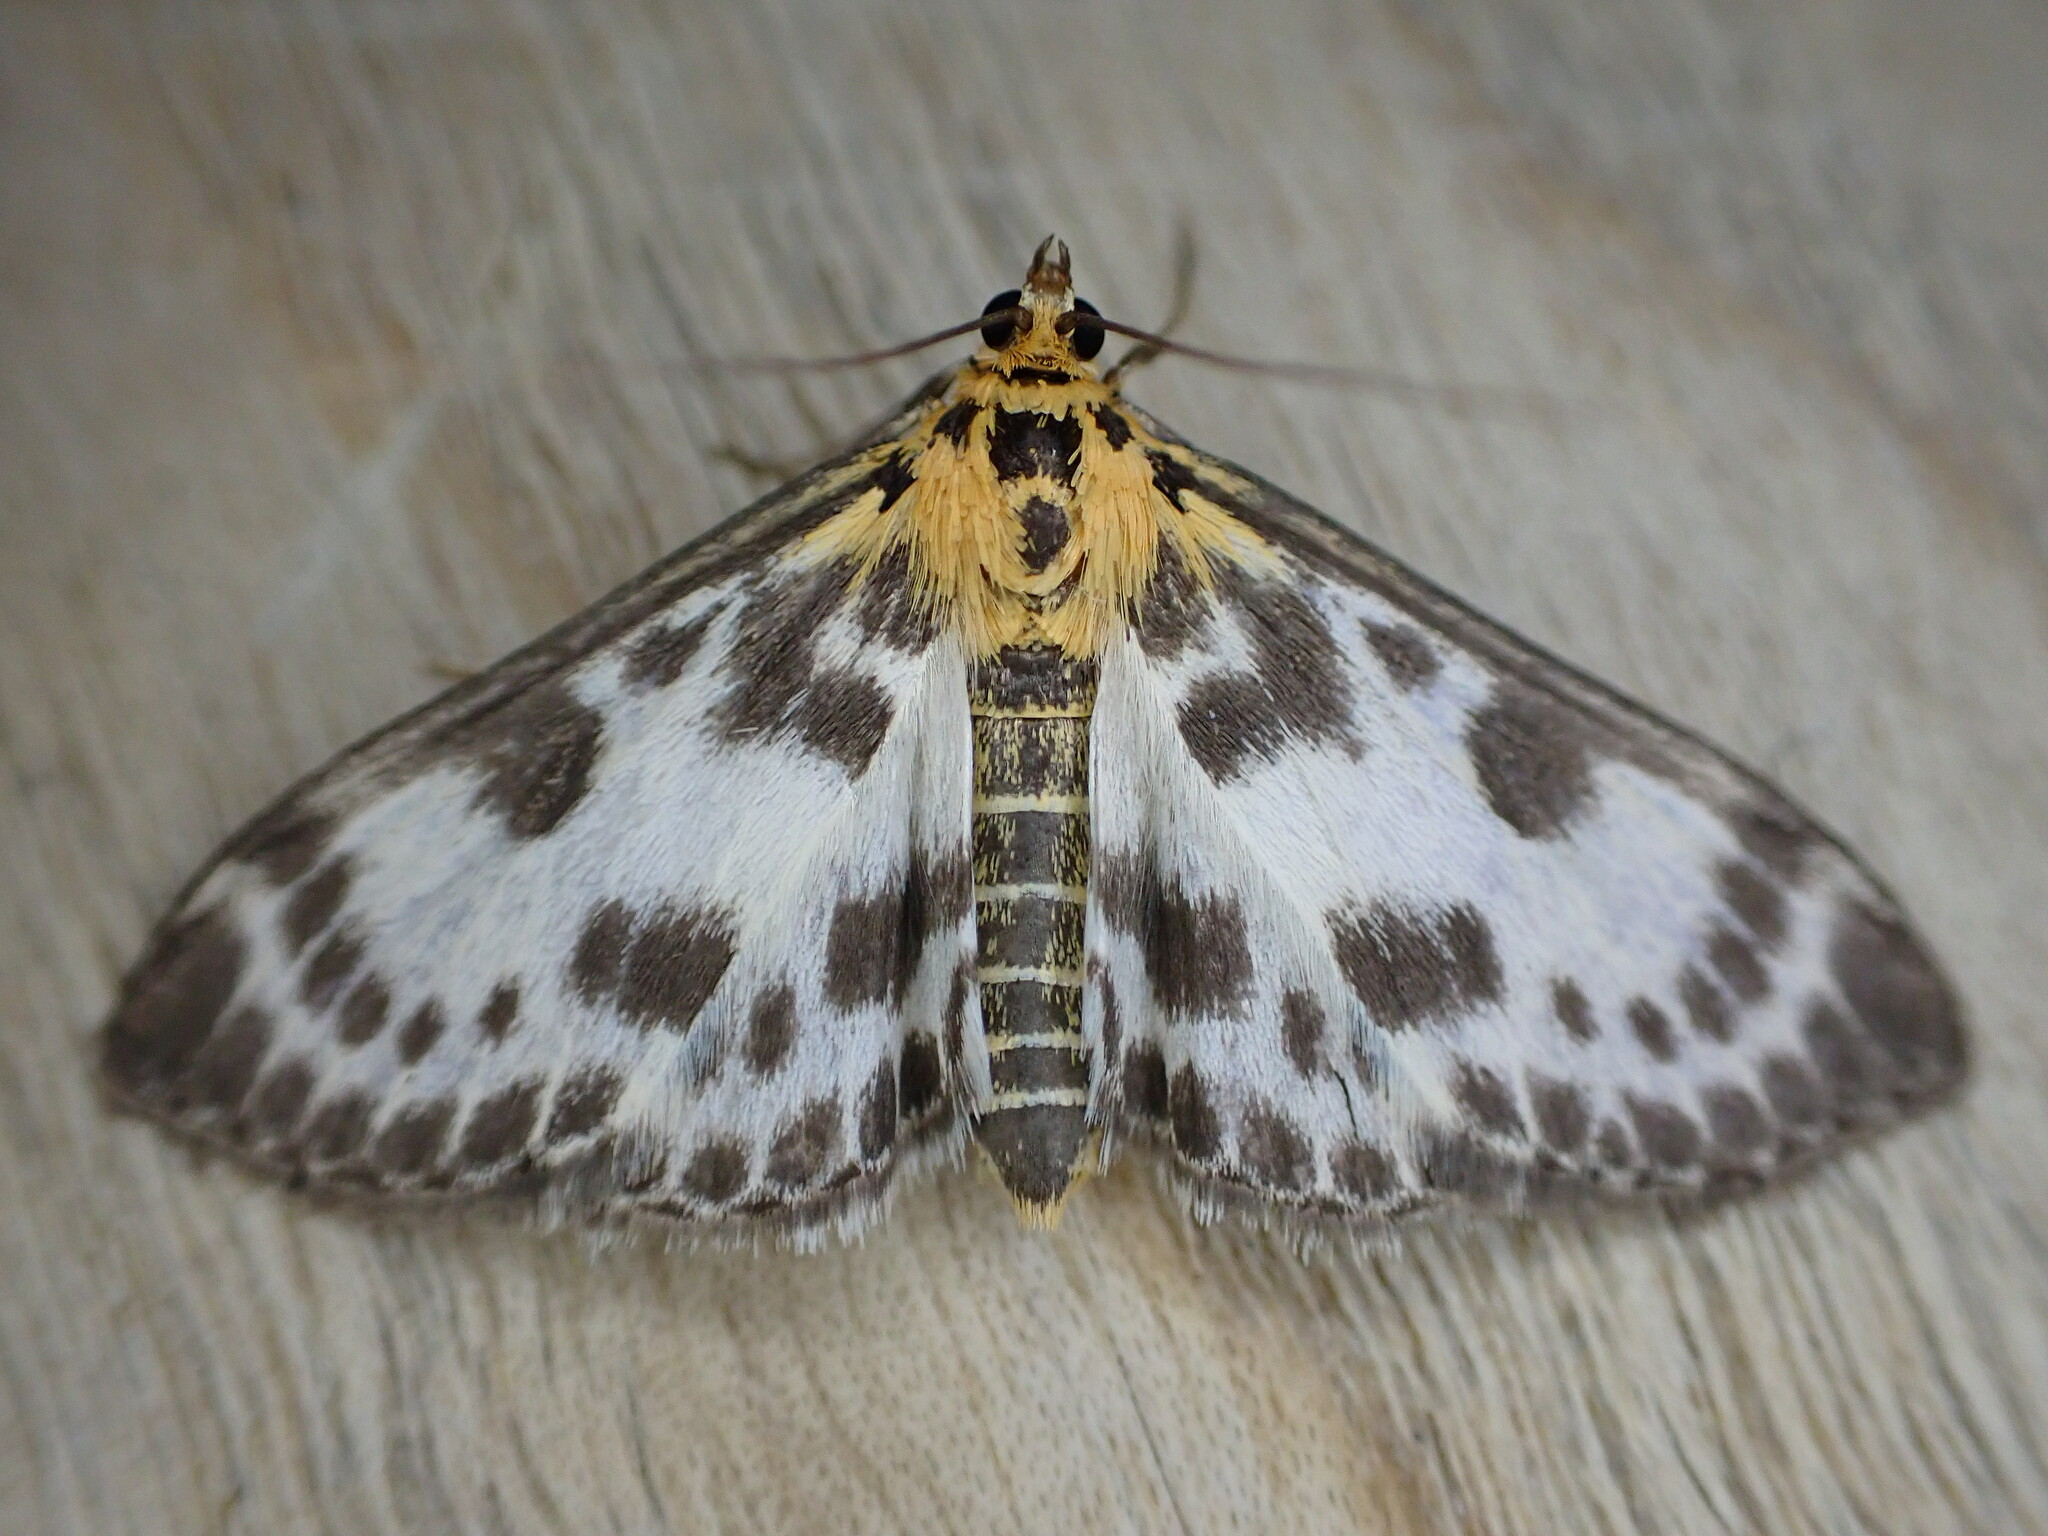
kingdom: Animalia
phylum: Arthropoda
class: Insecta
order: Lepidoptera
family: Crambidae
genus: Anania
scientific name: Anania hortulata
